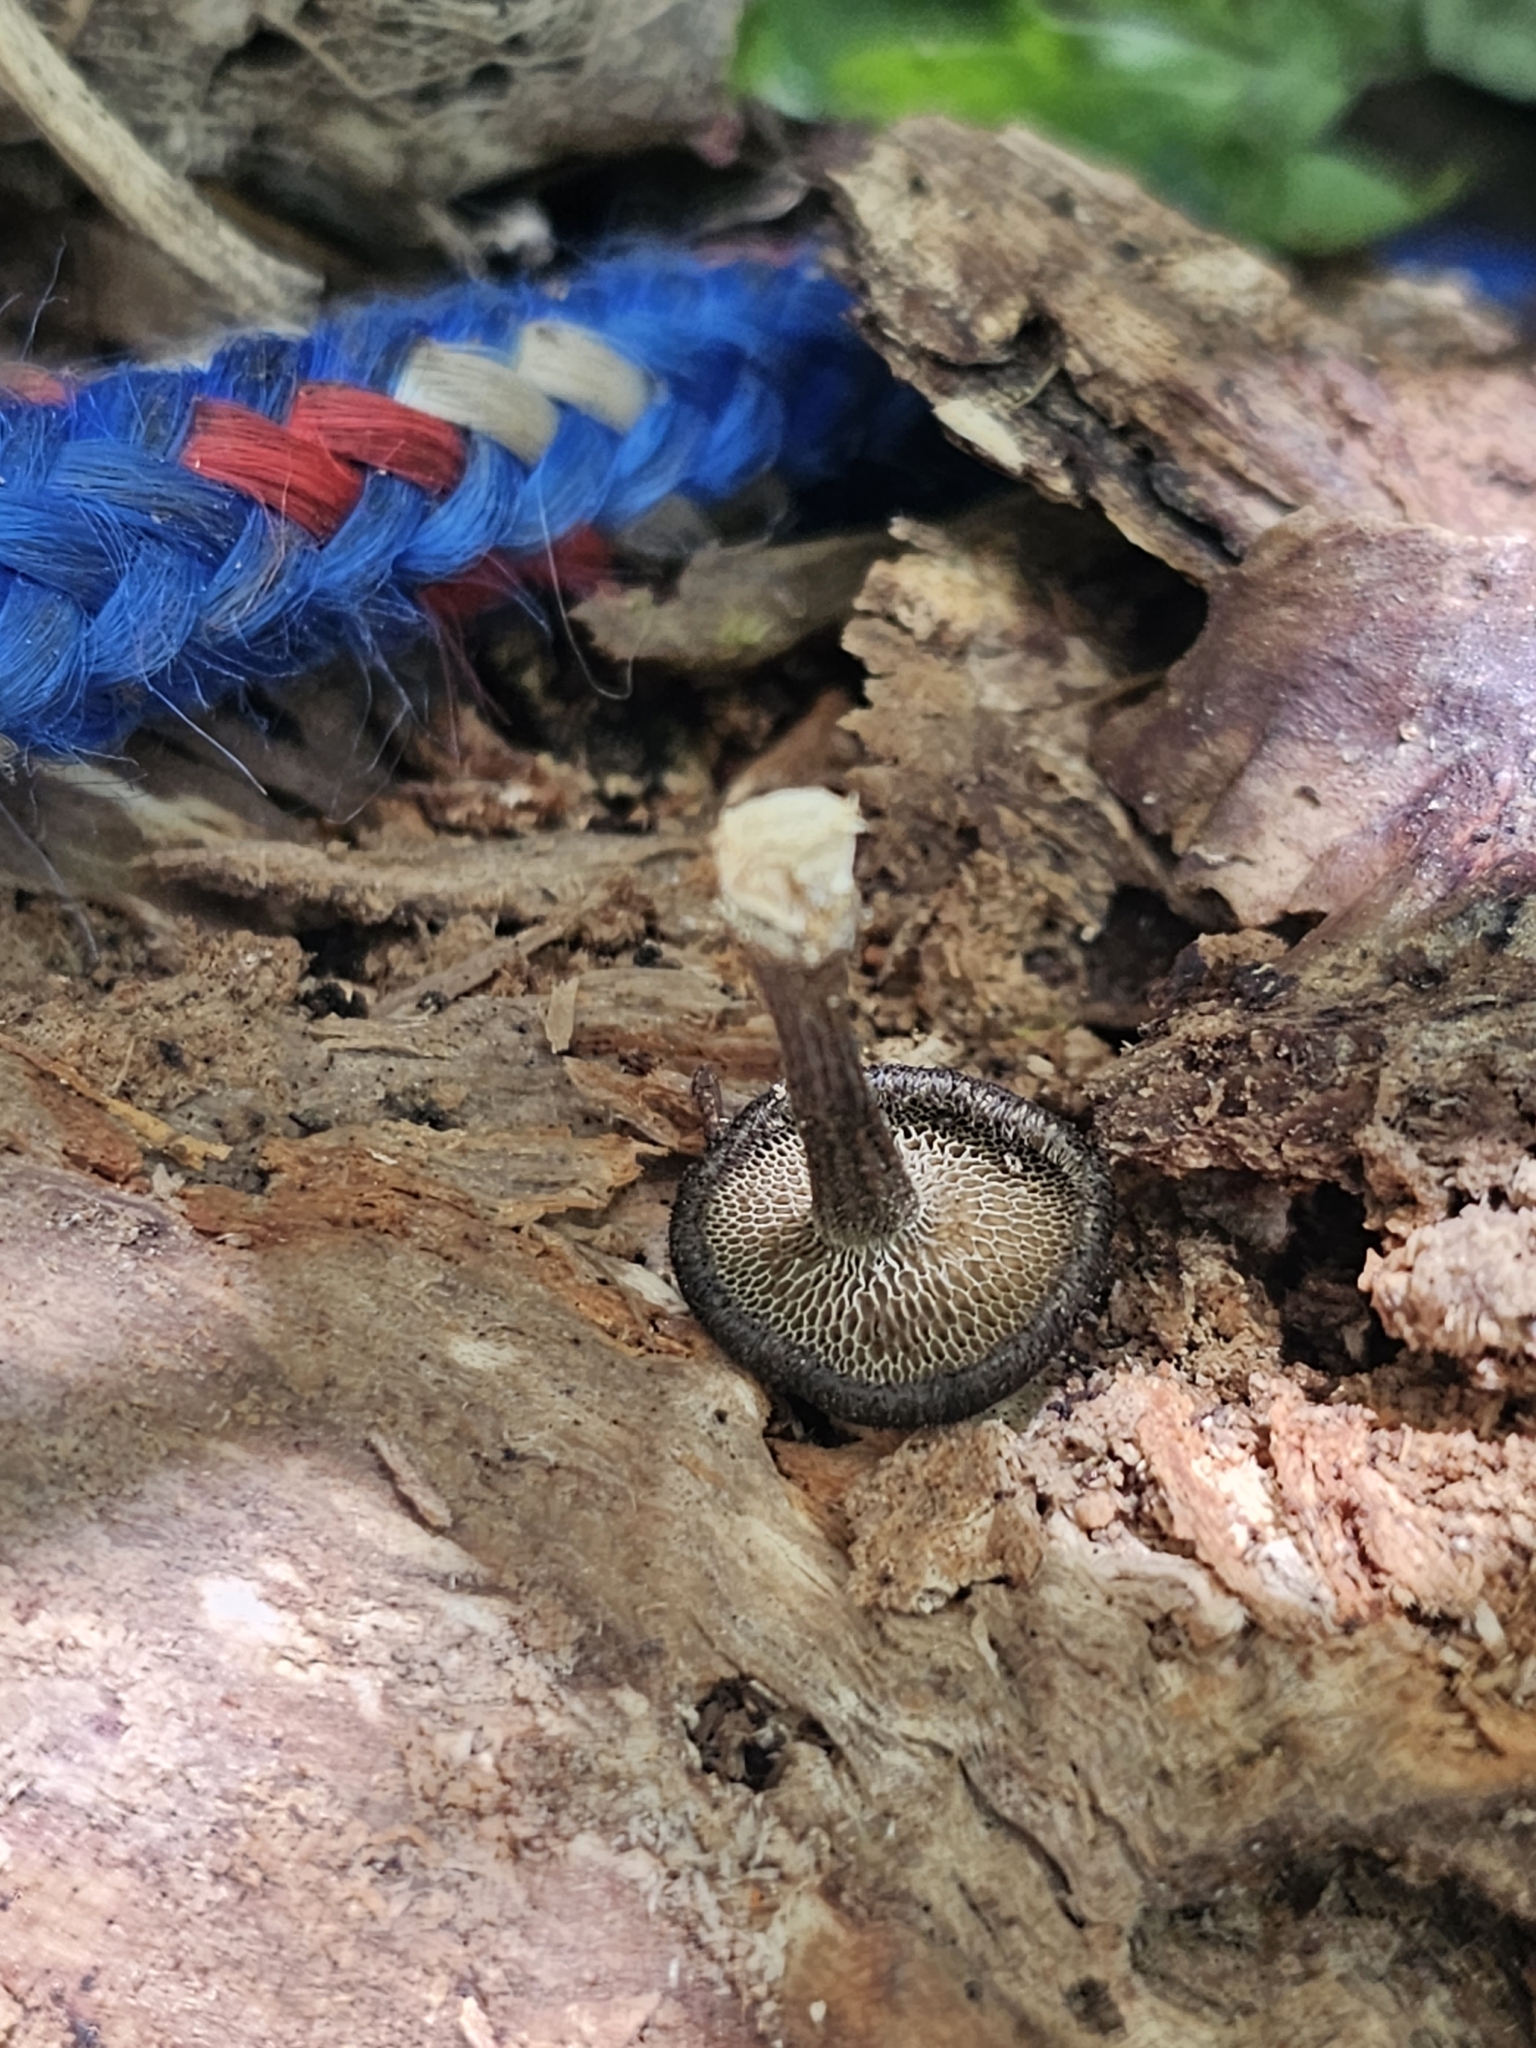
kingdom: Fungi
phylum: Basidiomycota
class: Agaricomycetes
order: Polyporales
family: Polyporaceae
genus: Lentinus
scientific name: Lentinus arcularius
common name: Spring polypore
